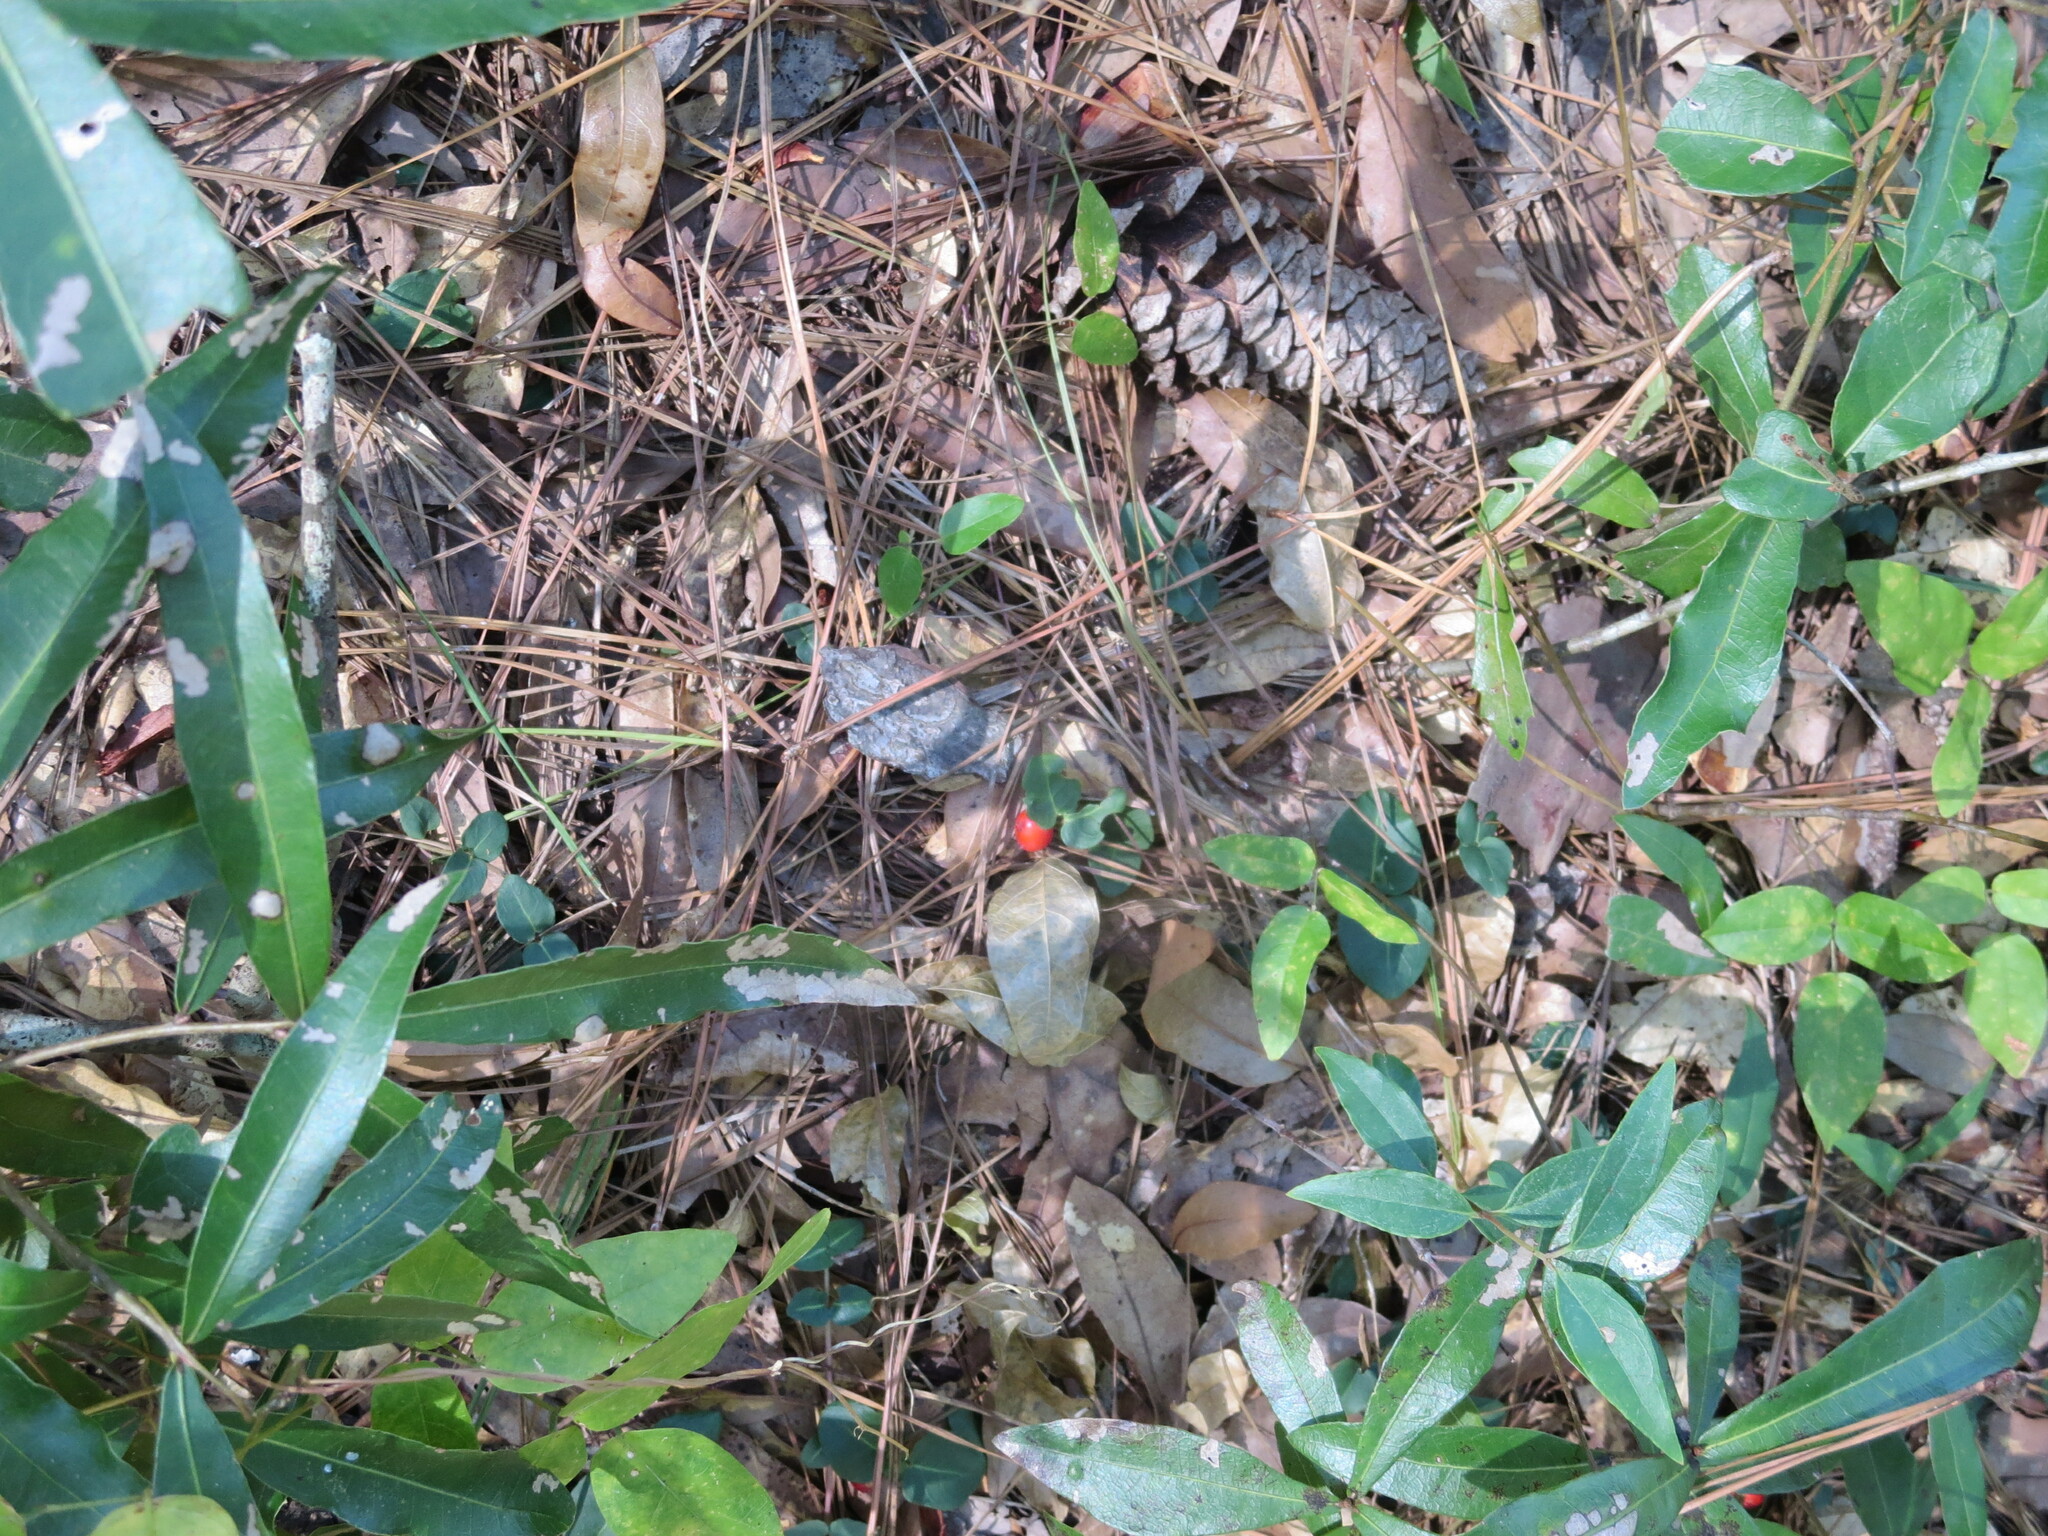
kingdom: Plantae
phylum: Tracheophyta
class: Magnoliopsida
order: Gentianales
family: Rubiaceae
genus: Mitchella
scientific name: Mitchella repens
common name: Partridge-berry
